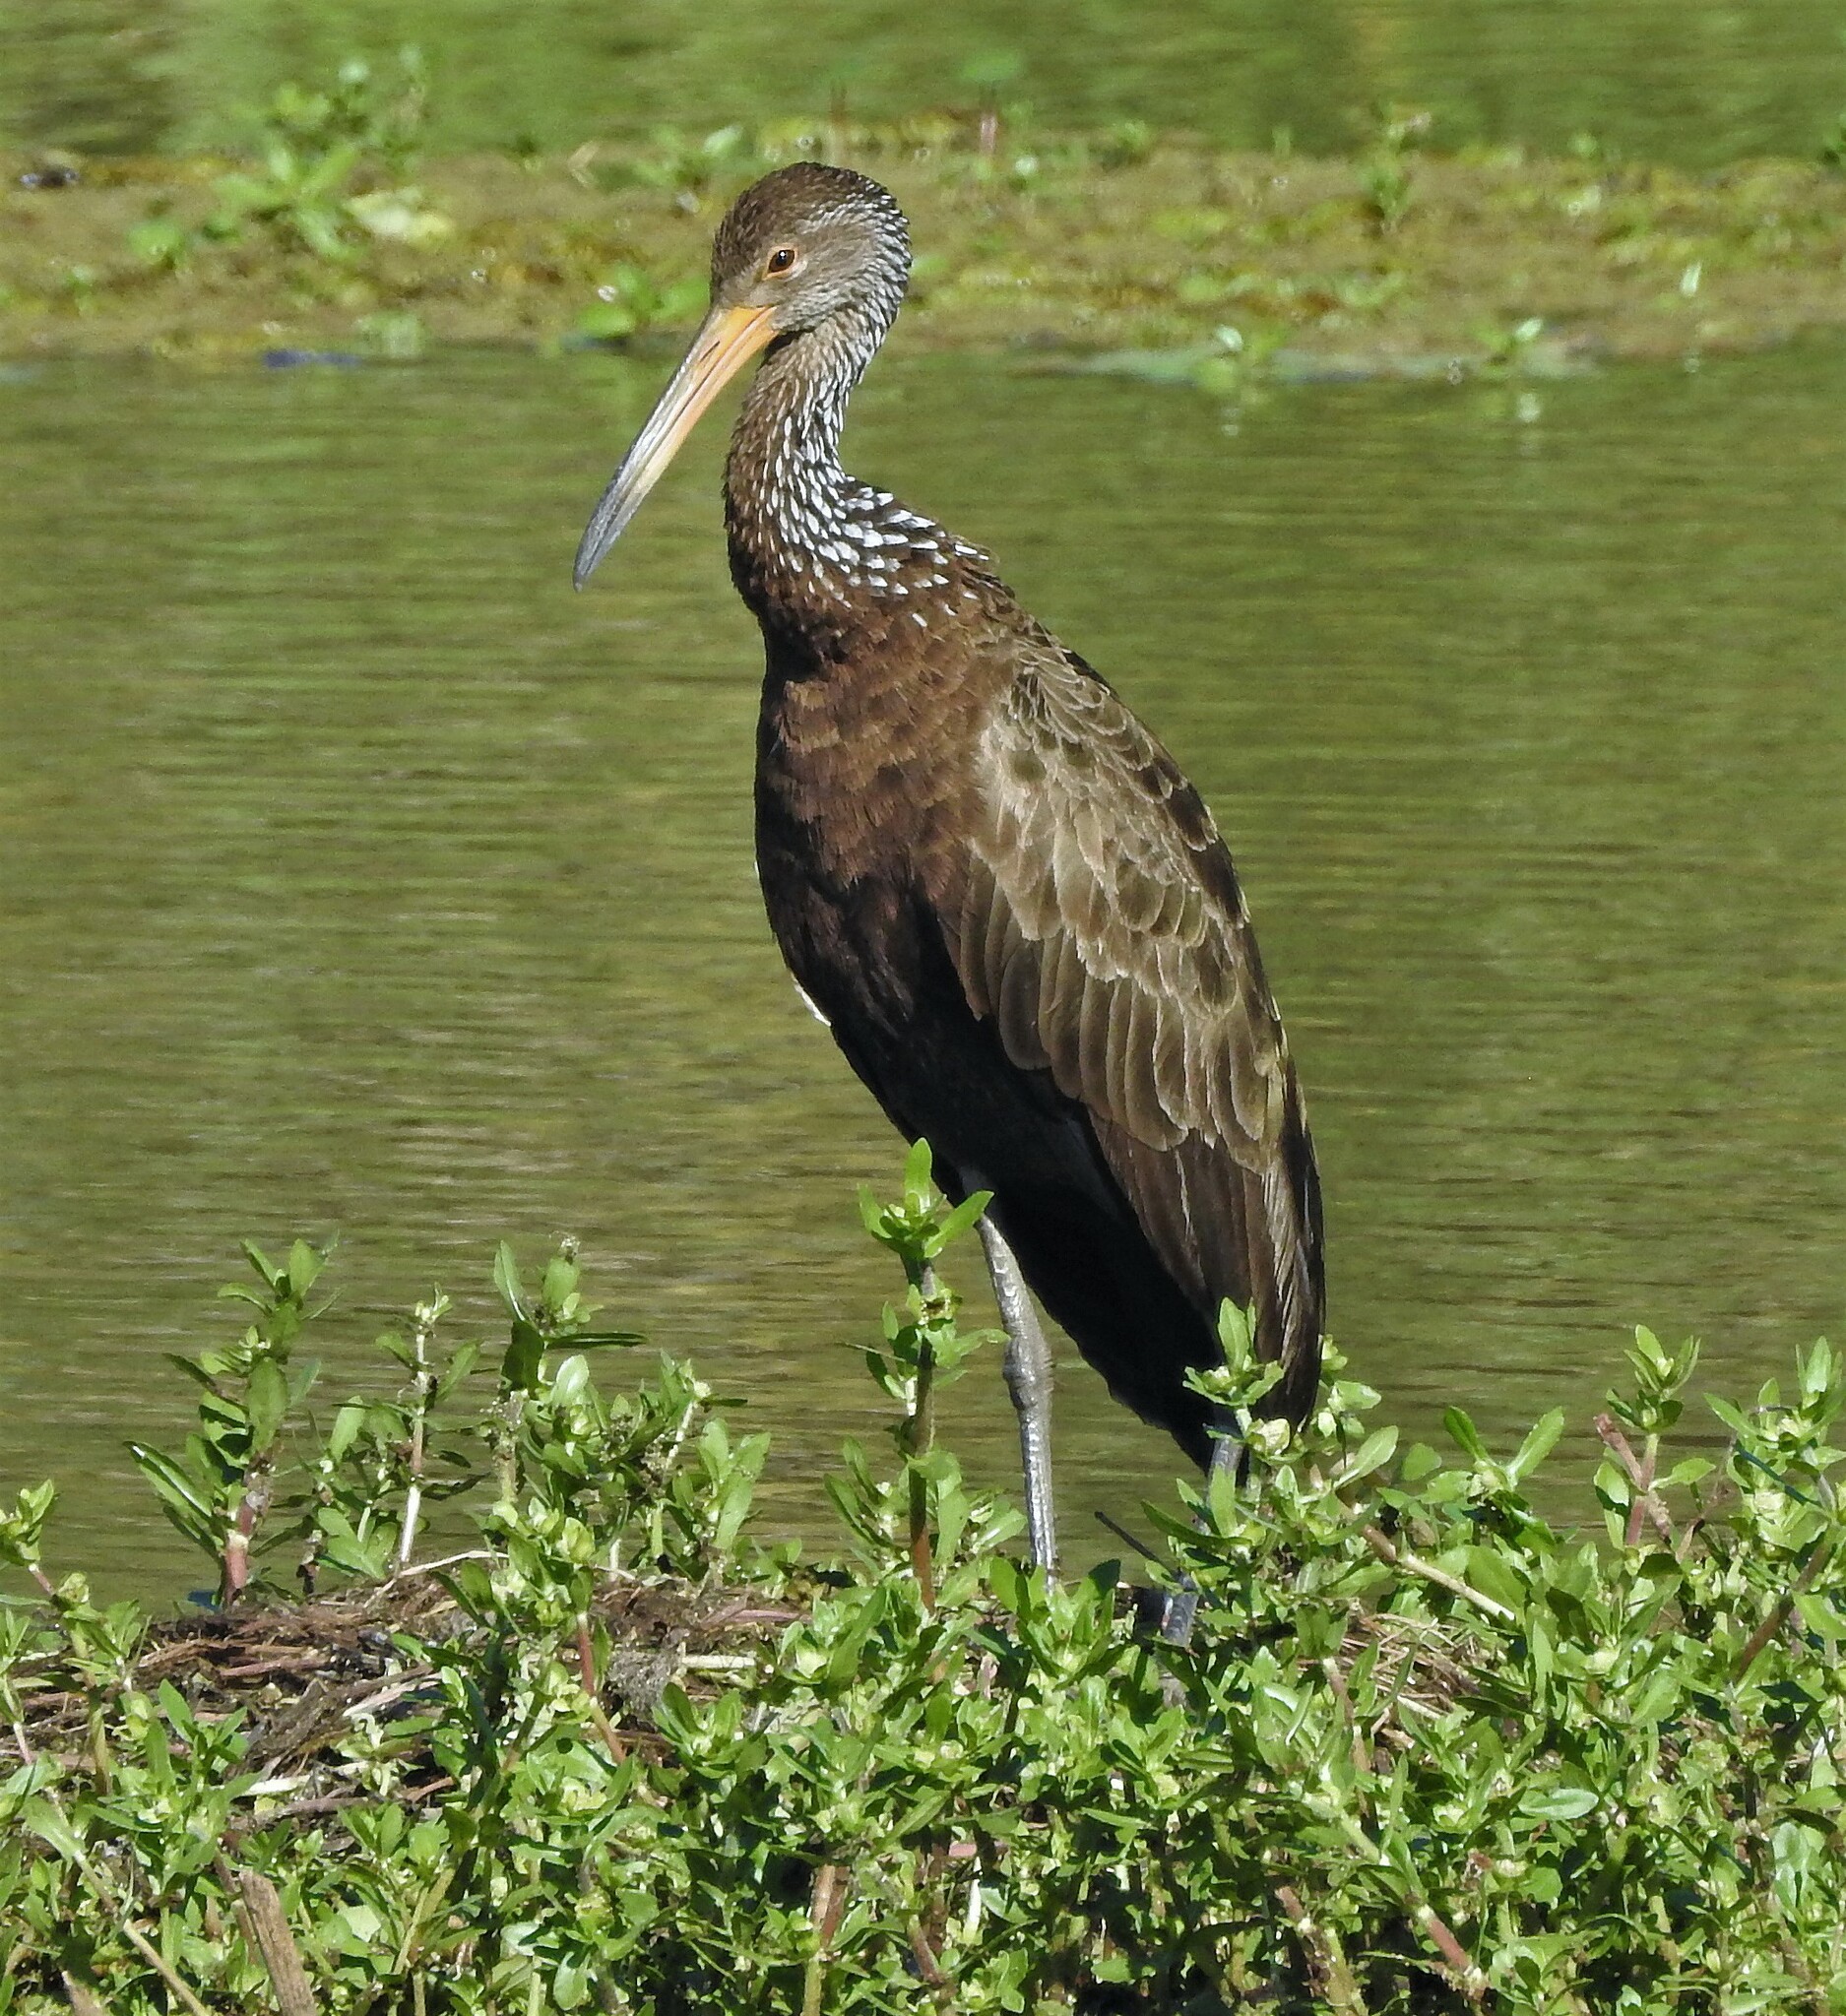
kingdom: Animalia
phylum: Chordata
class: Aves
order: Gruiformes
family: Aramidae
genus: Aramus
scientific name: Aramus guarauna
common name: Limpkin
